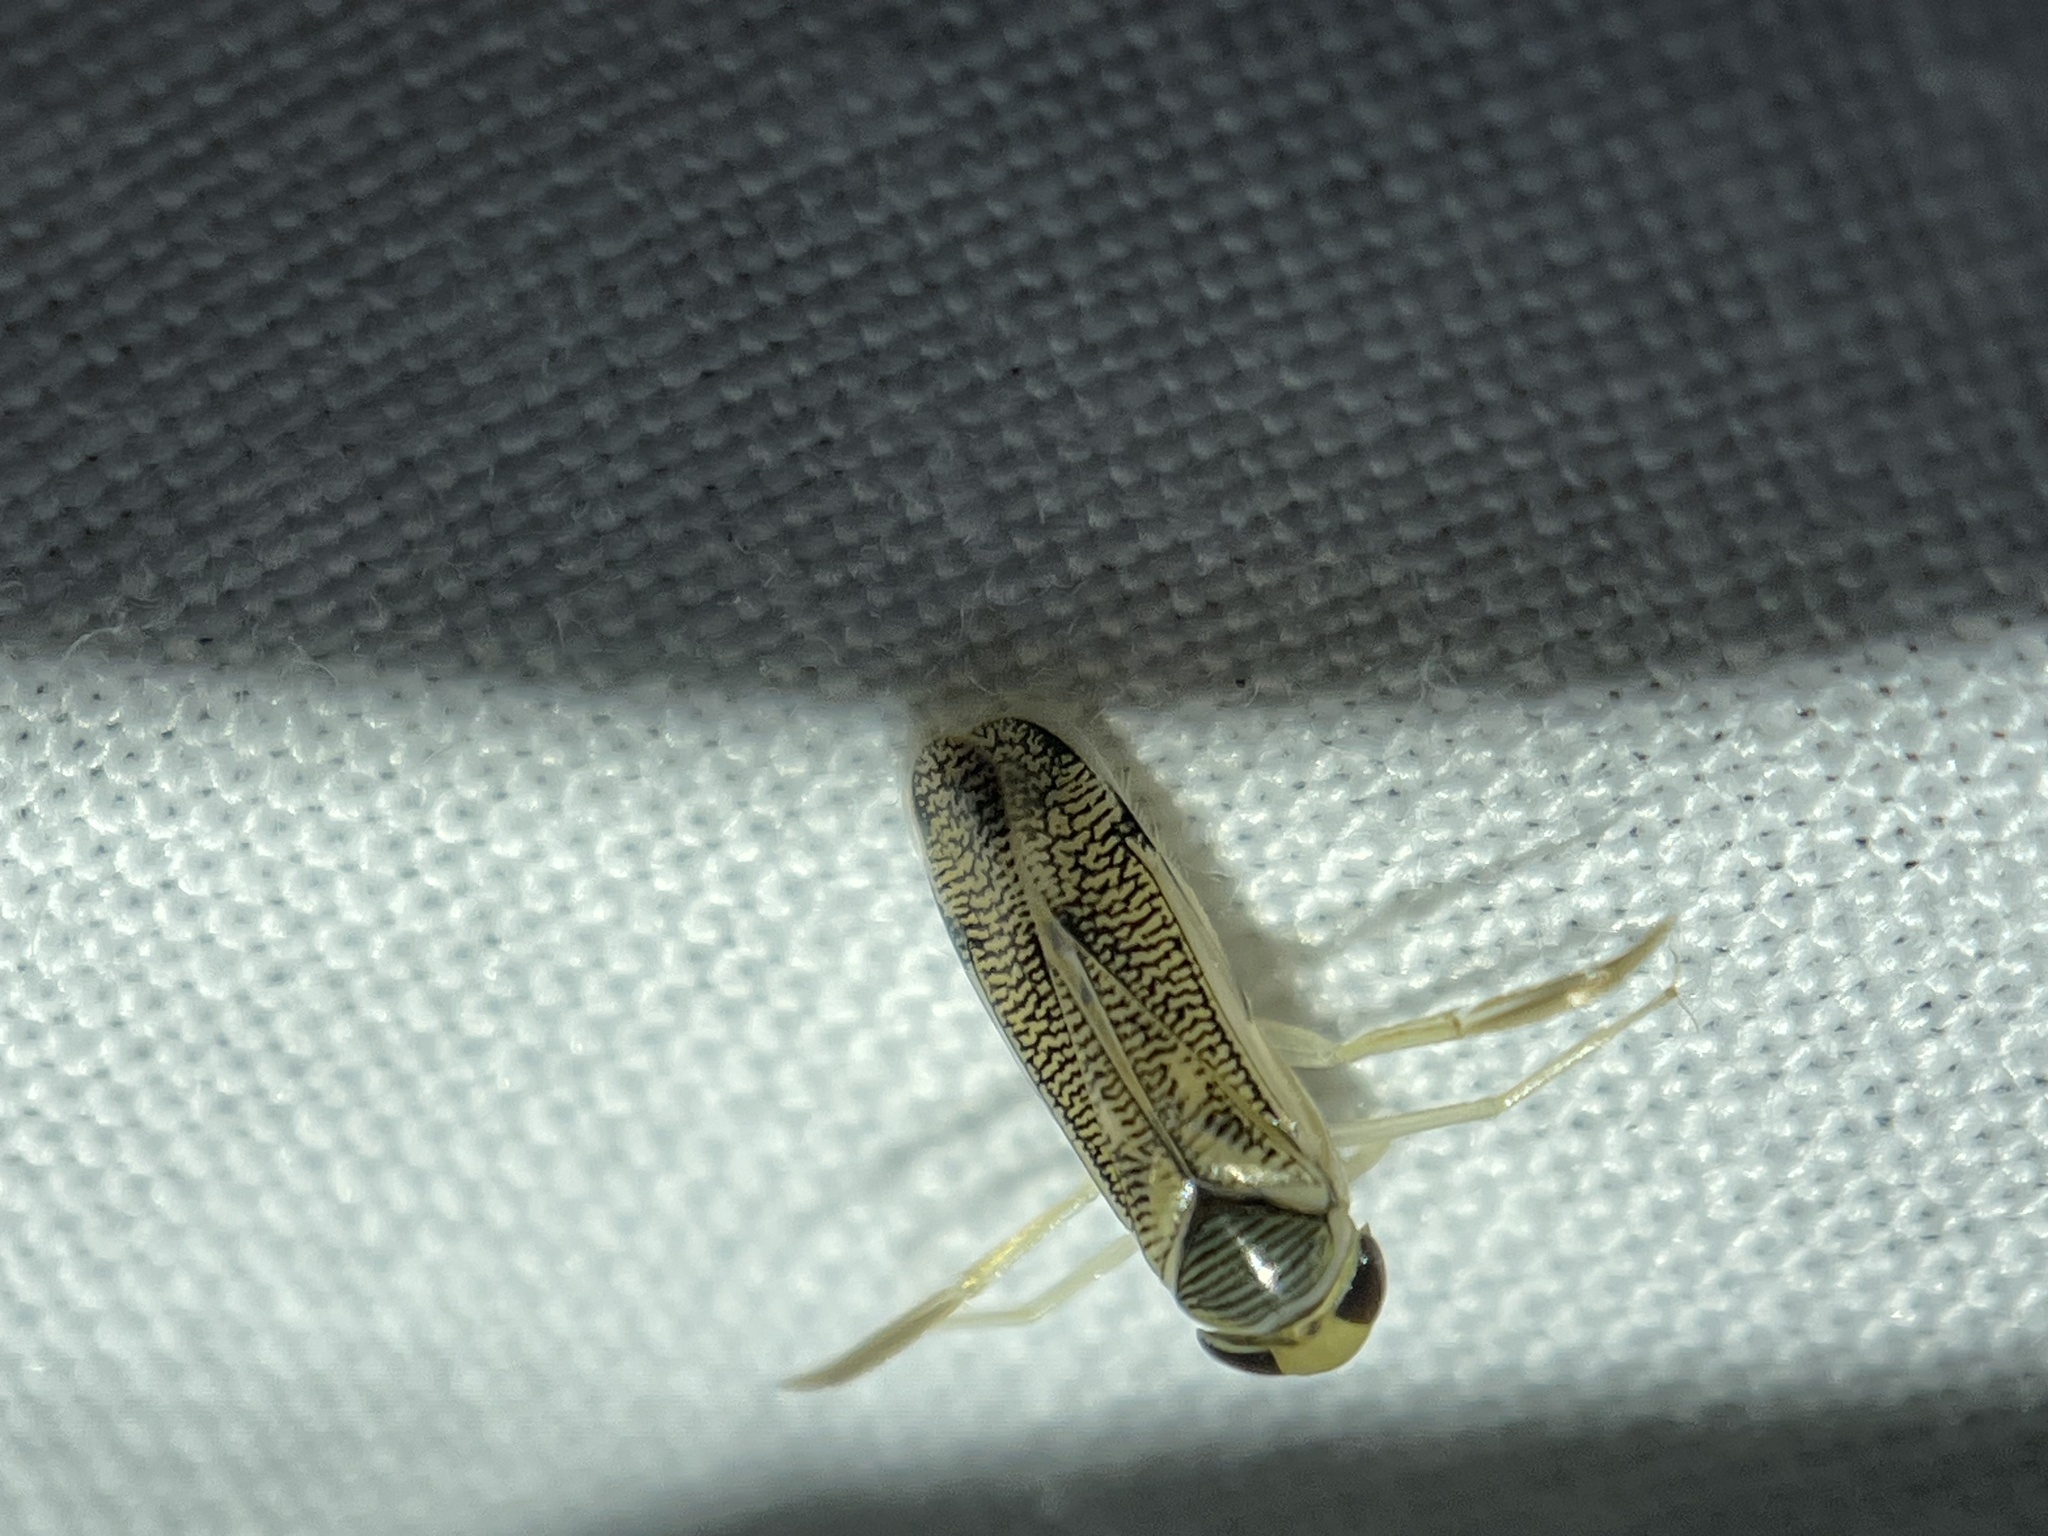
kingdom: Animalia
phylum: Arthropoda
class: Insecta
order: Hemiptera
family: Corixidae
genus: Trichocorixa
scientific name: Trichocorixa
